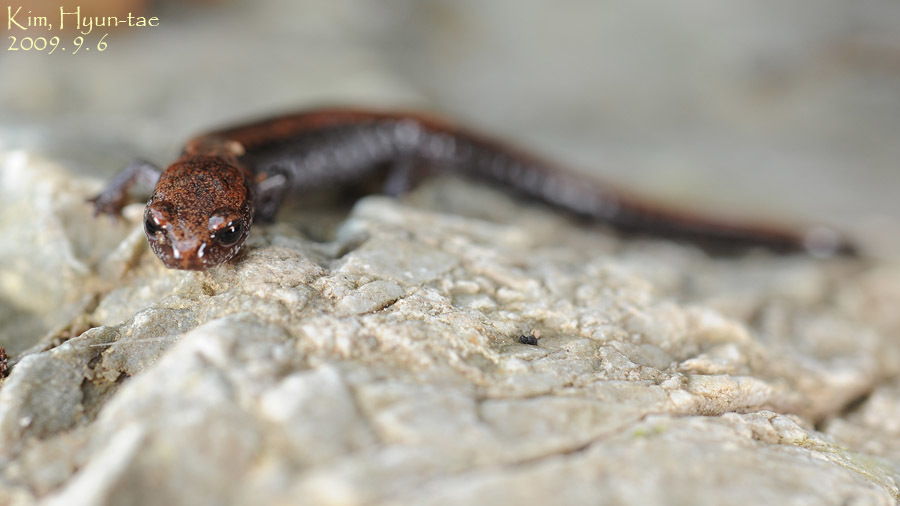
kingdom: Animalia
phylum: Chordata
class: Amphibia
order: Caudata
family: Plethodontidae
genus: Karsenia
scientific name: Karsenia koreana
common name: Korean crevice salamander
